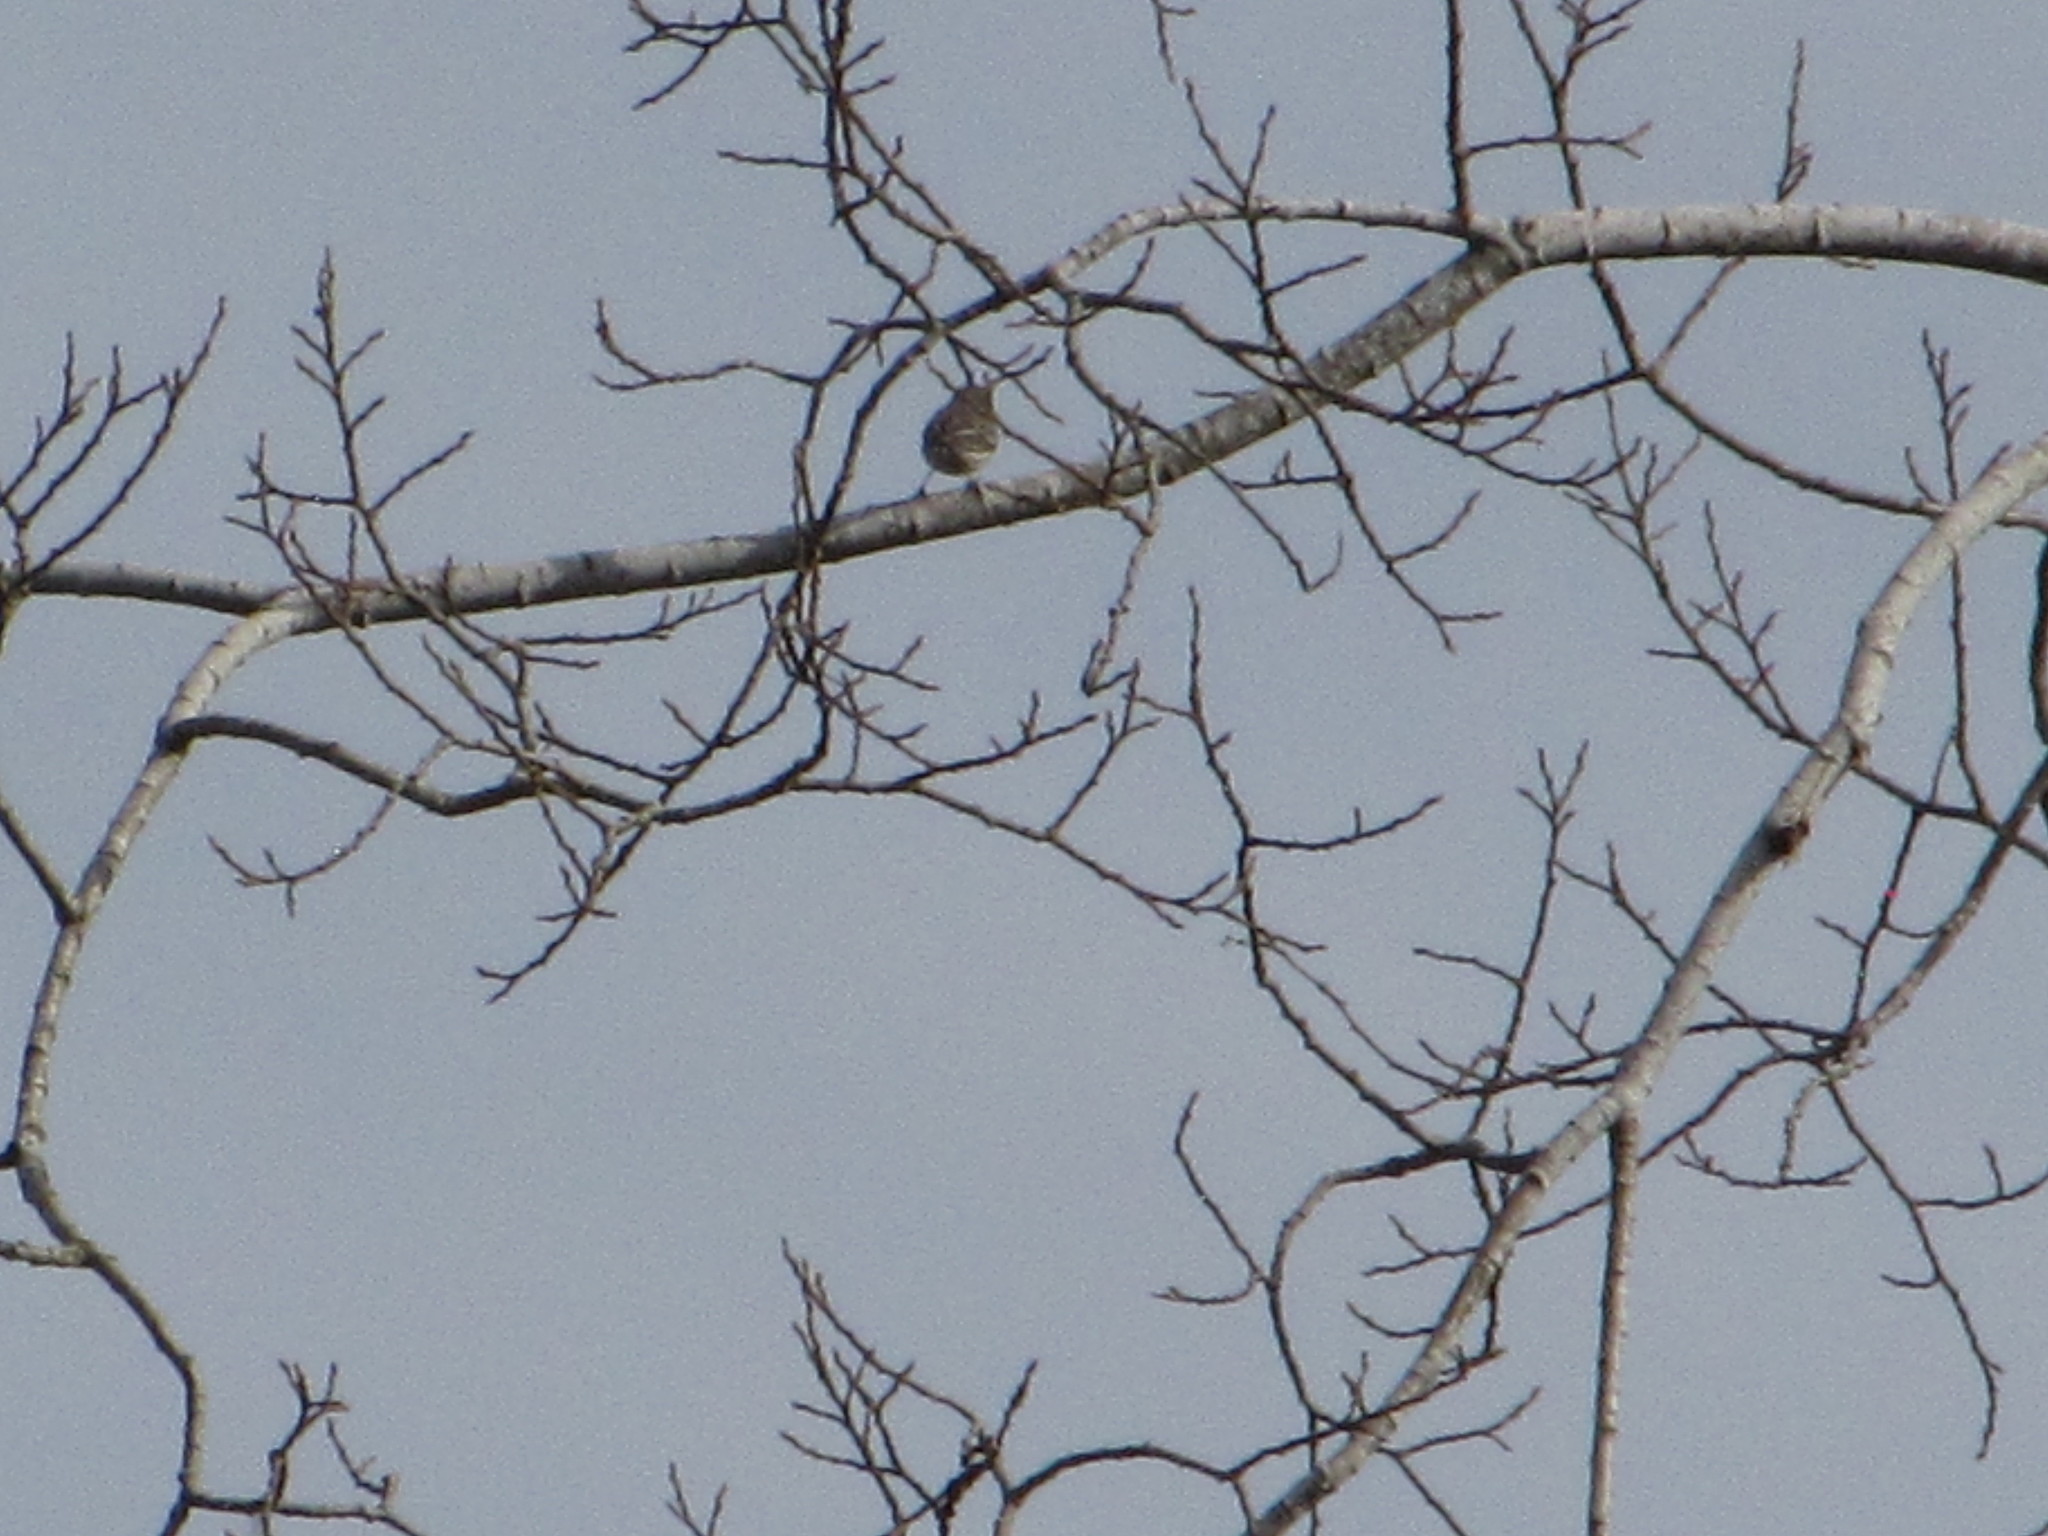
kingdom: Animalia
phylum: Chordata
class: Aves
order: Passeriformes
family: Parulidae
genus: Setophaga
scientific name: Setophaga coronata
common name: Myrtle warbler
